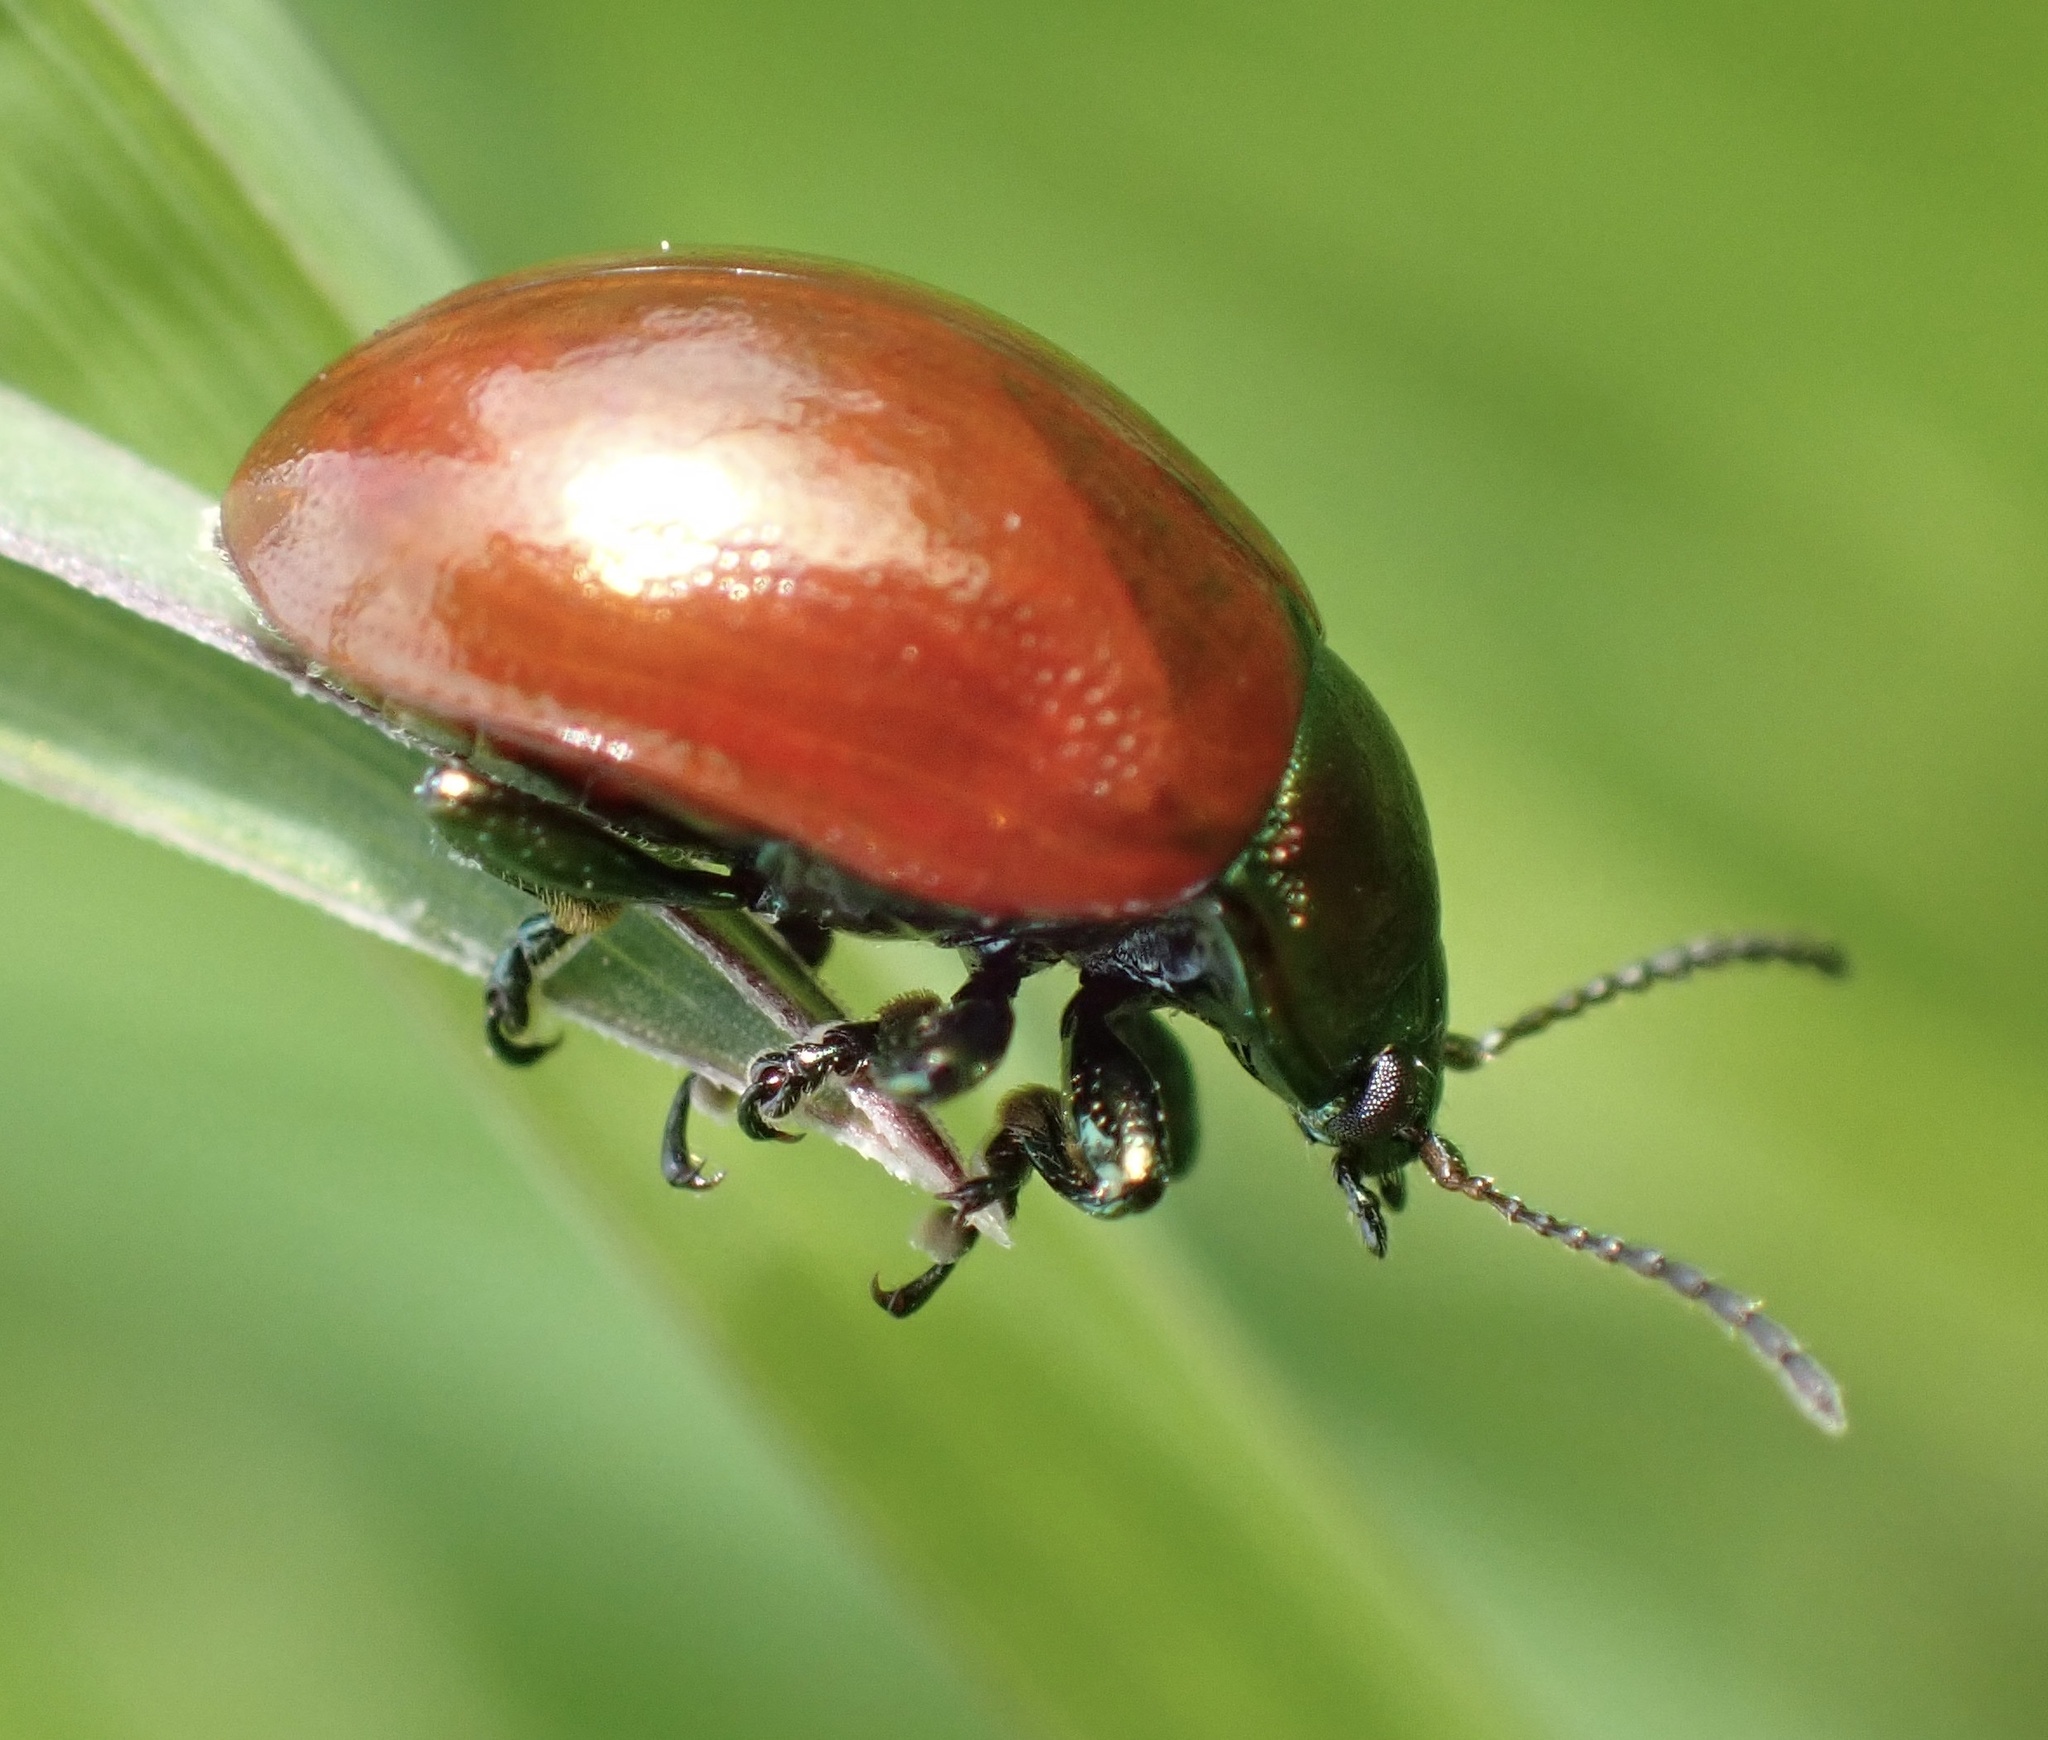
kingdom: Animalia
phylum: Arthropoda
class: Insecta
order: Coleoptera
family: Chrysomelidae
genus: Chrysomela
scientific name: Chrysomela polita
